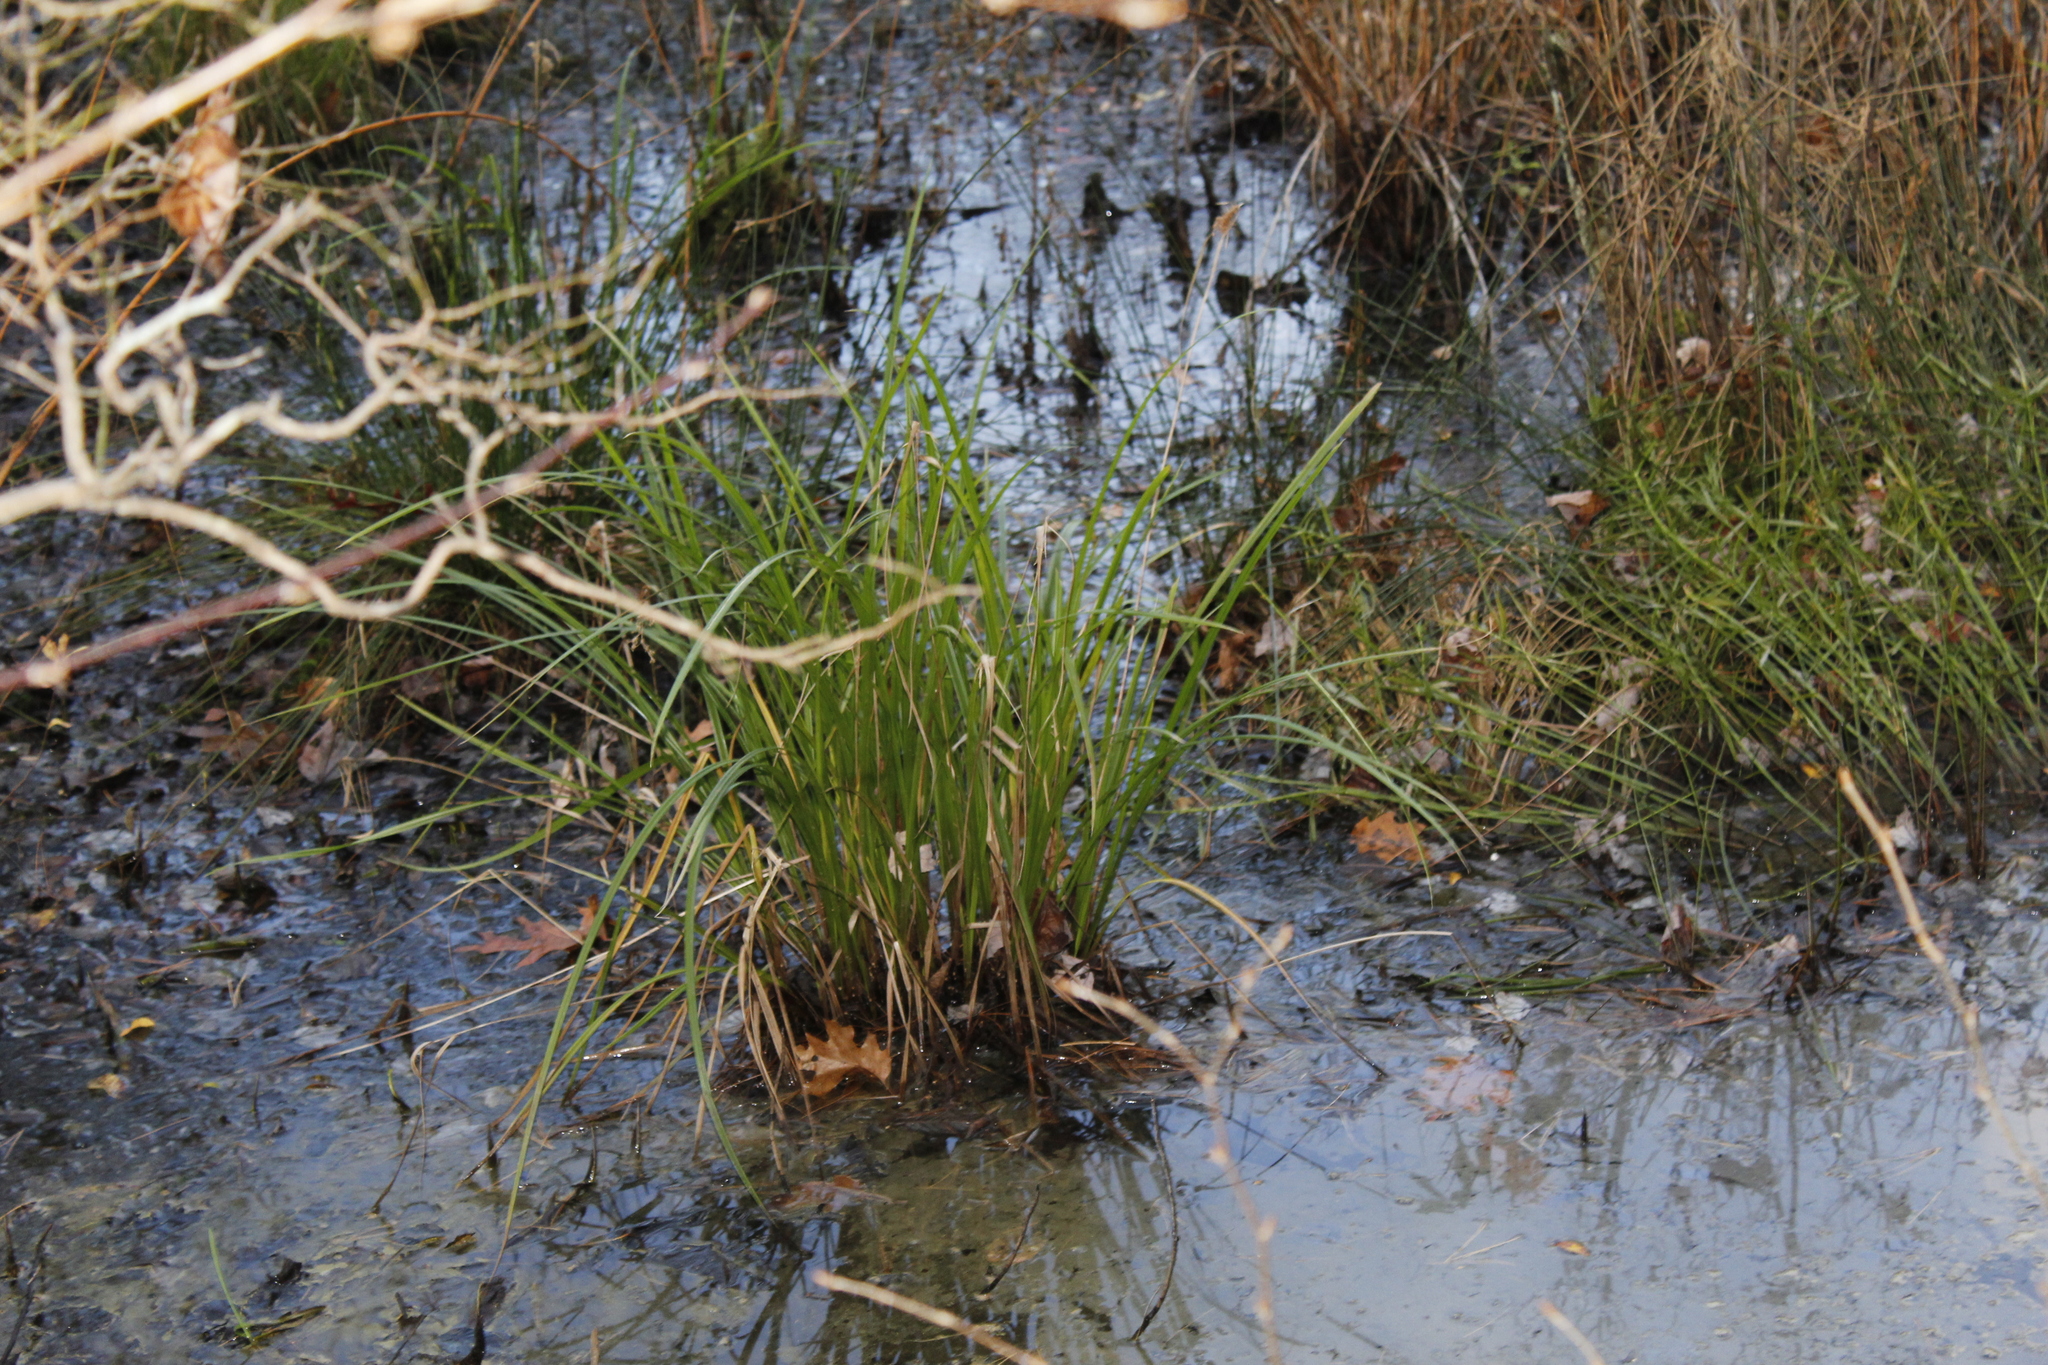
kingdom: Plantae
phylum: Tracheophyta
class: Liliopsida
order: Poales
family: Cyperaceae
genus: Carex
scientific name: Carex
